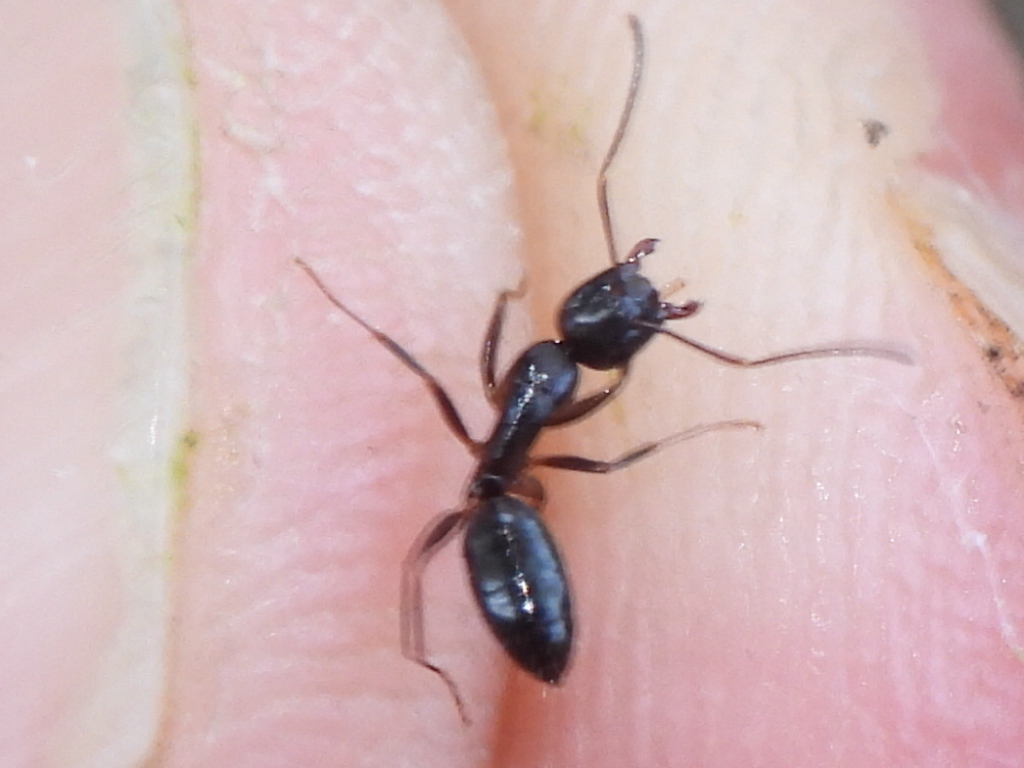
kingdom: Animalia
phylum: Arthropoda
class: Insecta
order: Hymenoptera
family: Formicidae
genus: Camponotus
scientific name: Camponotus nearcticus
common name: Smaller carpenter ant
